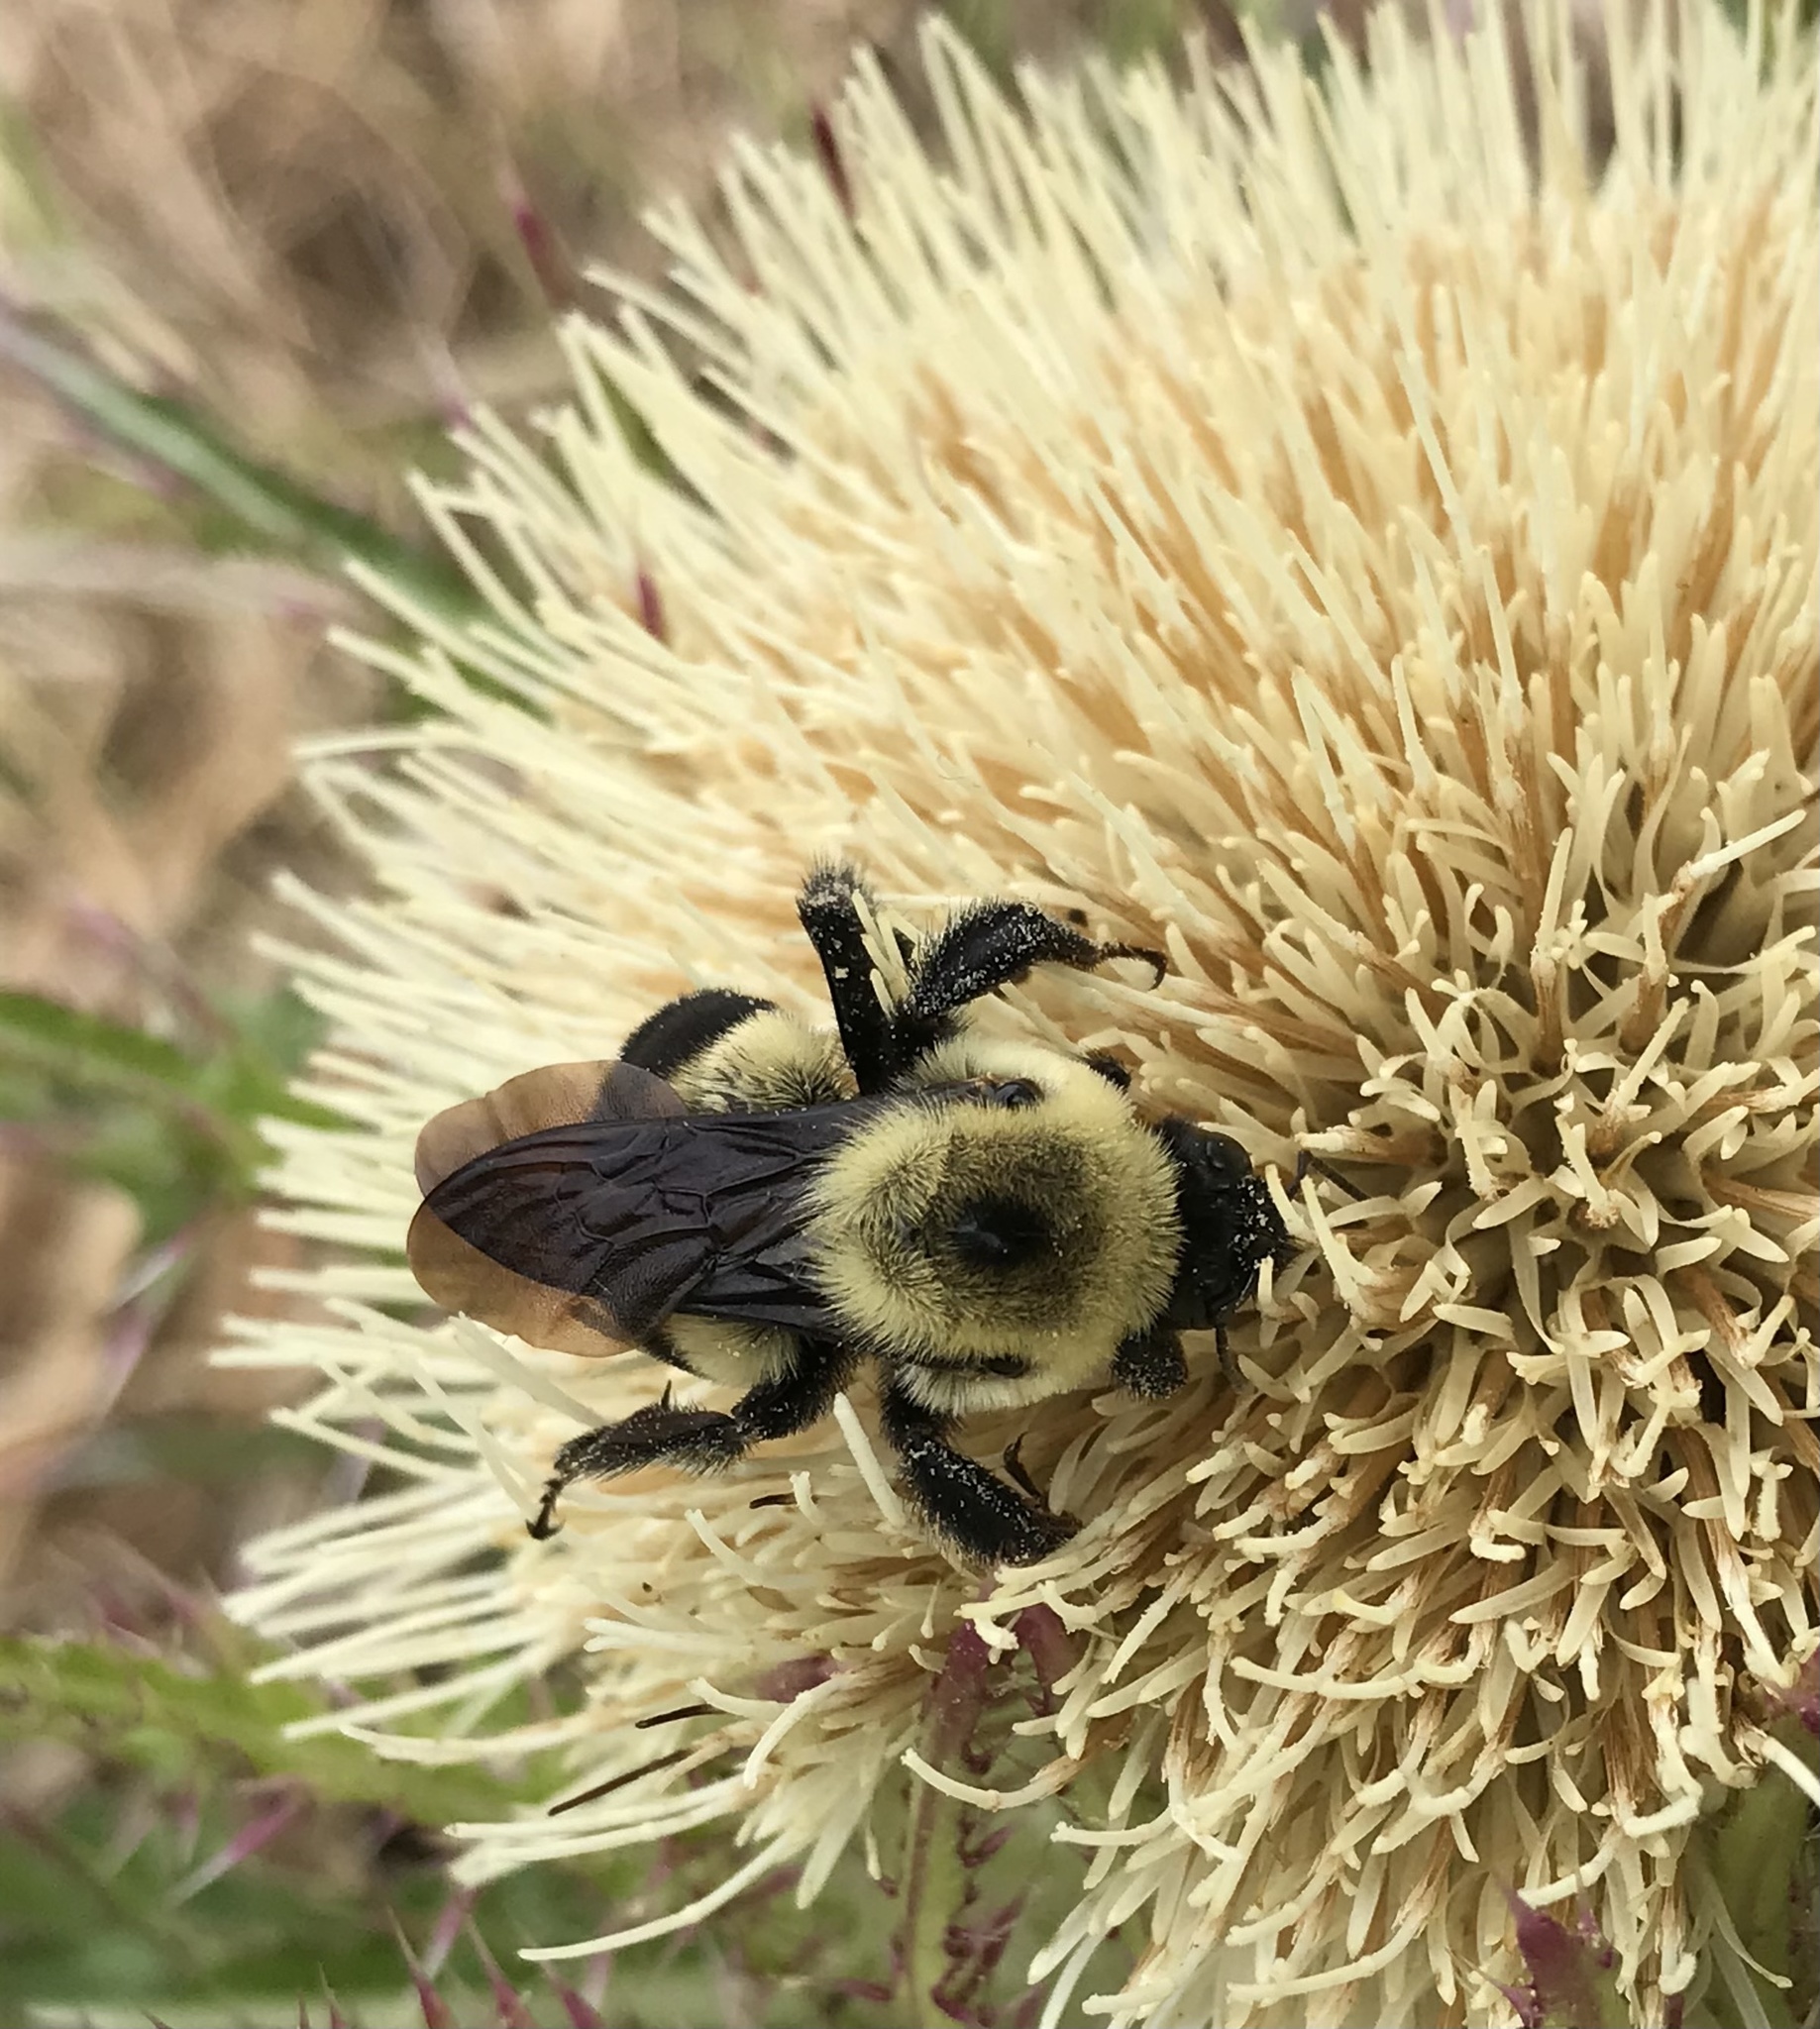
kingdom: Animalia
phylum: Arthropoda
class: Insecta
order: Hymenoptera
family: Apidae
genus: Bombus
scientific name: Bombus griseocollis
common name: Brown-belted bumble bee
